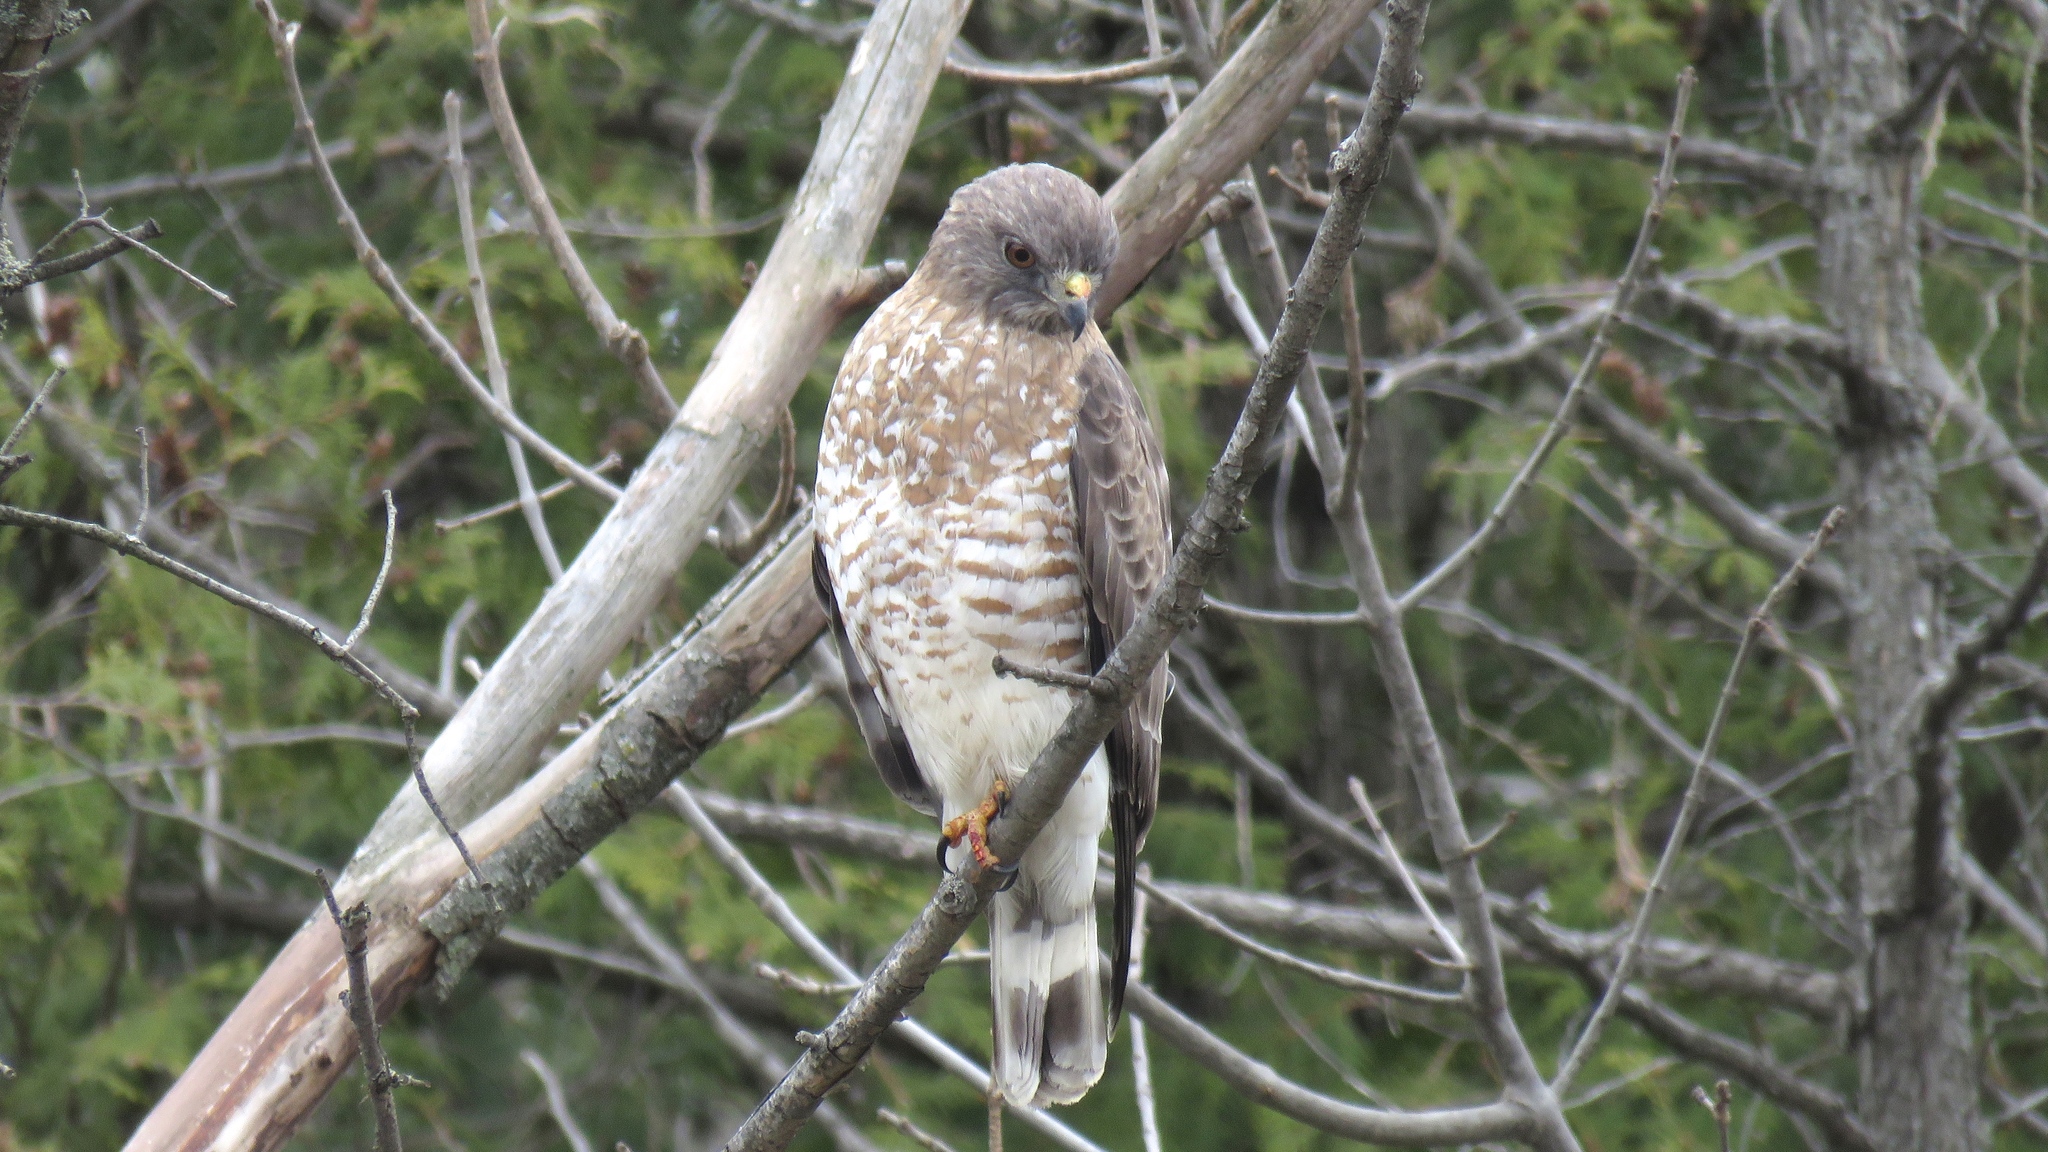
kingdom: Animalia
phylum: Chordata
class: Aves
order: Accipitriformes
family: Accipitridae
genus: Buteo
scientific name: Buteo platypterus
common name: Broad-winged hawk
